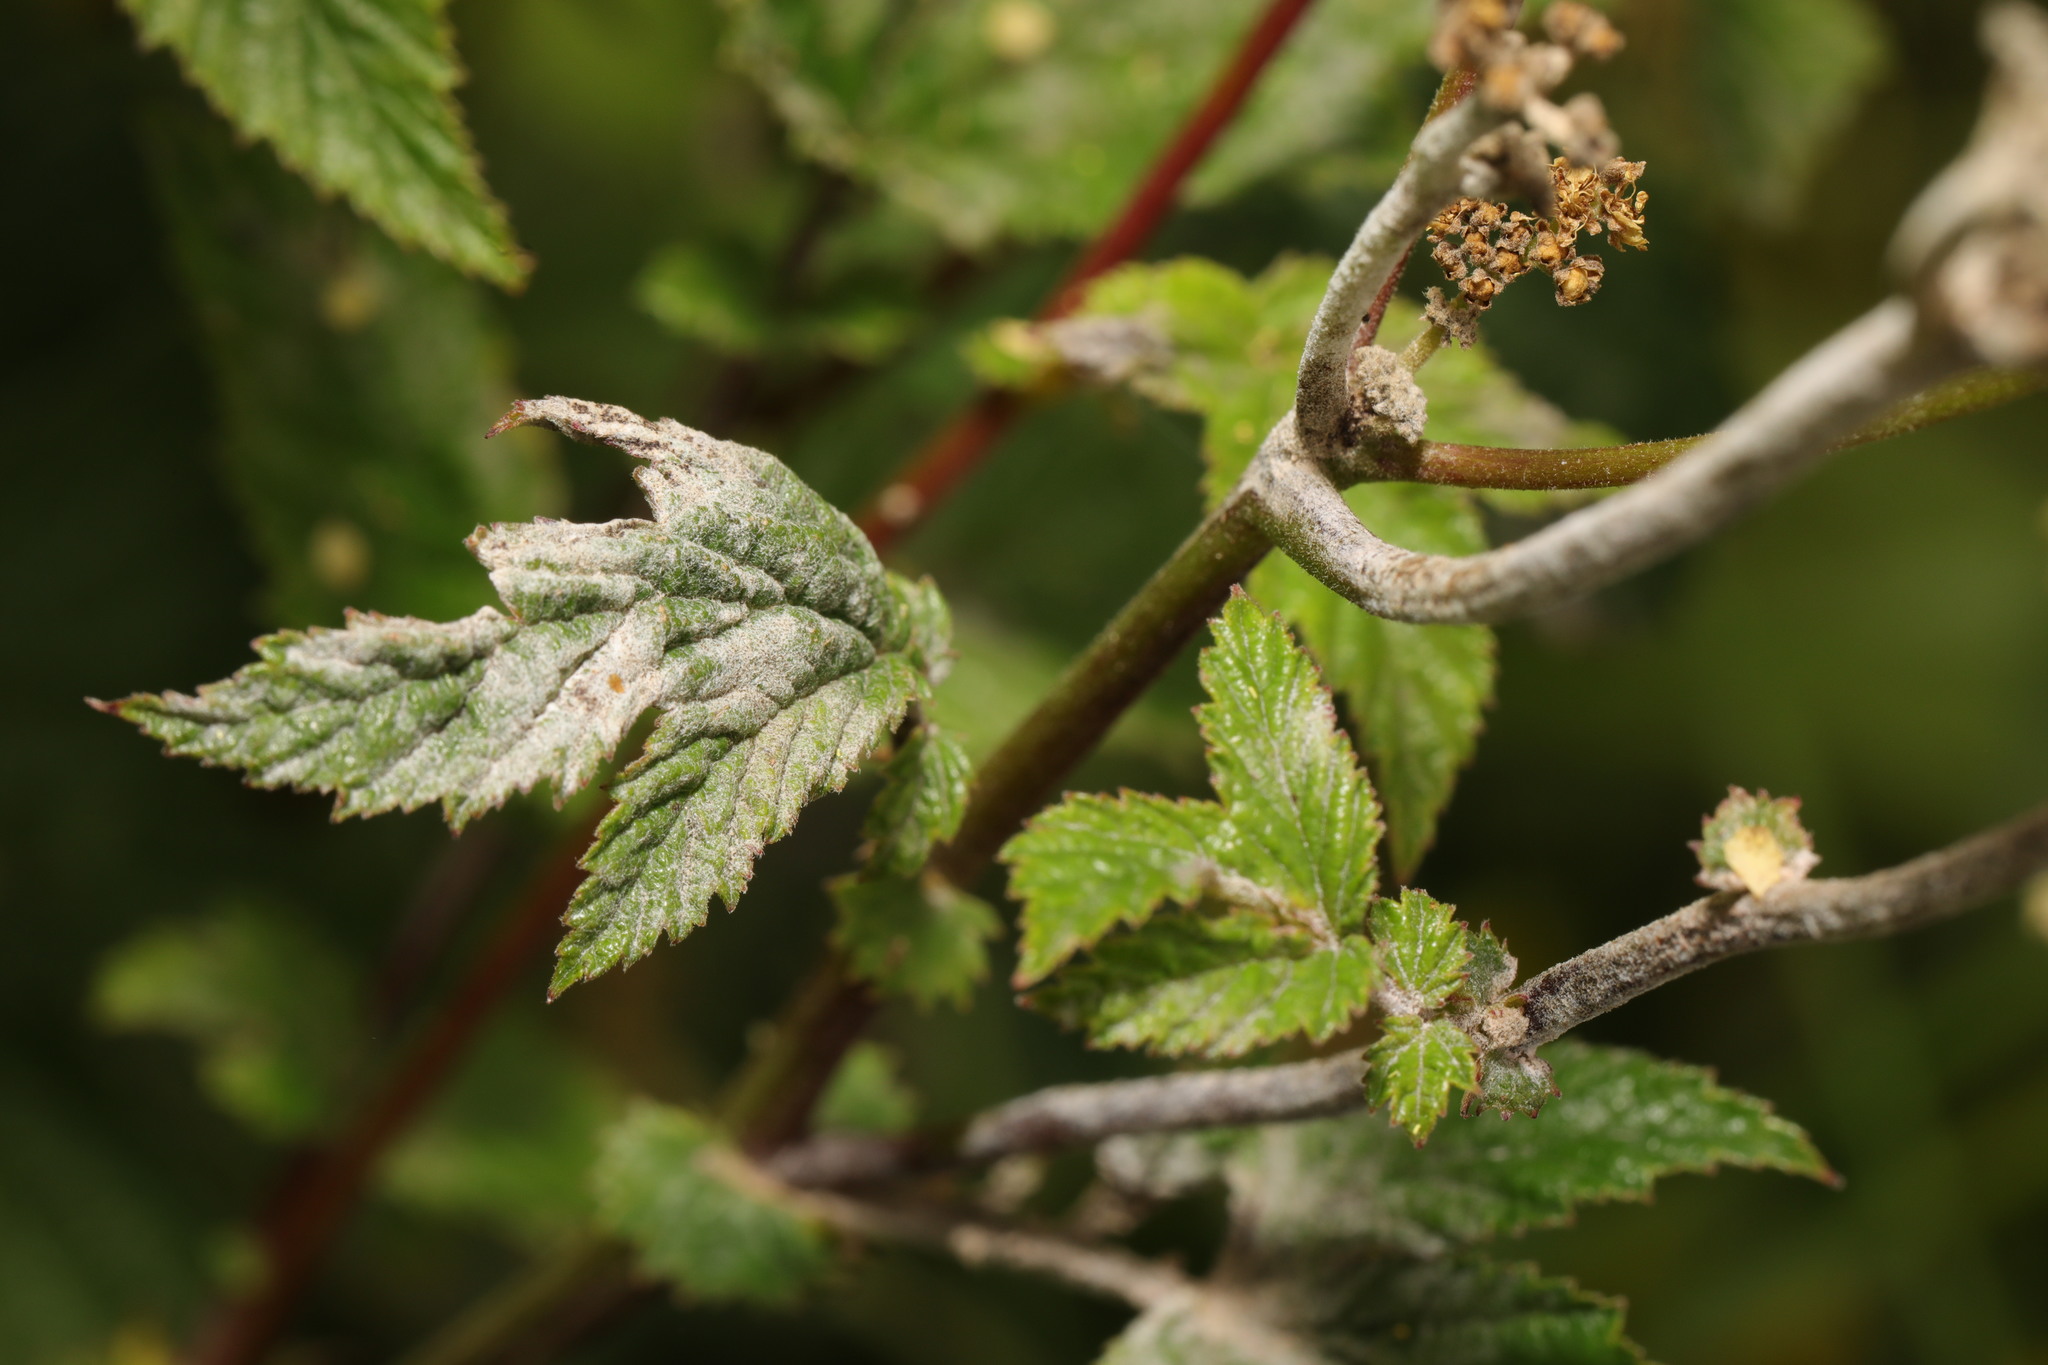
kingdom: Plantae
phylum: Tracheophyta
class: Magnoliopsida
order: Rosales
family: Rosaceae
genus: Filipendula
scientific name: Filipendula ulmaria
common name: Meadowsweet
